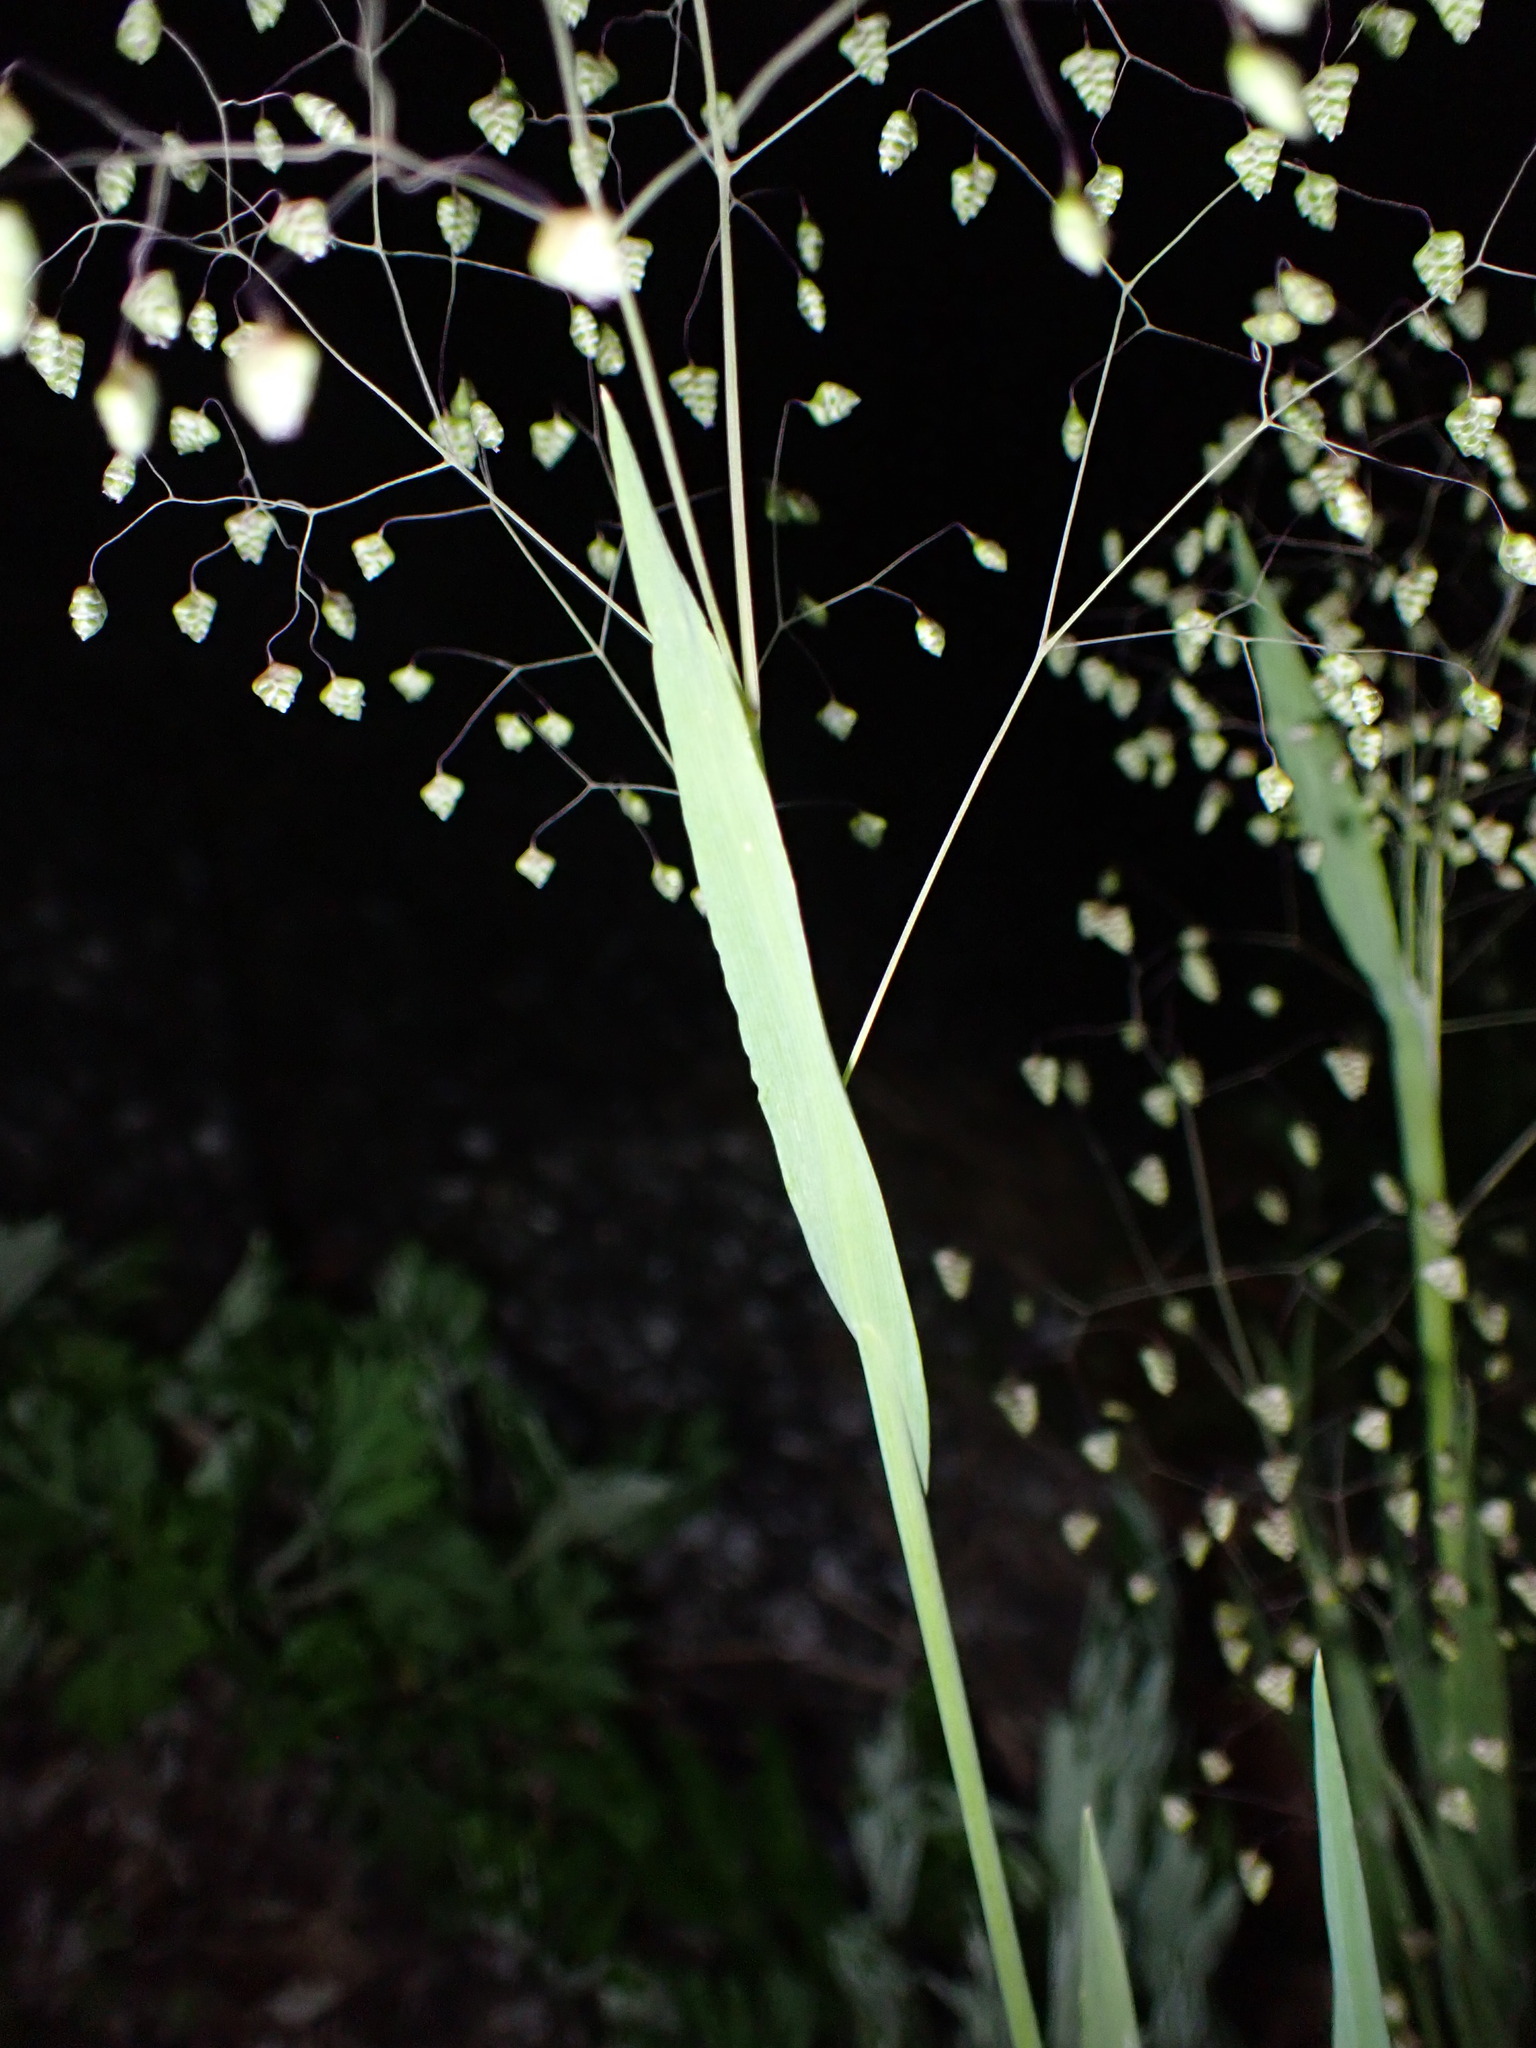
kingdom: Plantae
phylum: Tracheophyta
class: Liliopsida
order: Poales
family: Poaceae
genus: Briza
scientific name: Briza minor
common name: Lesser quaking-grass
